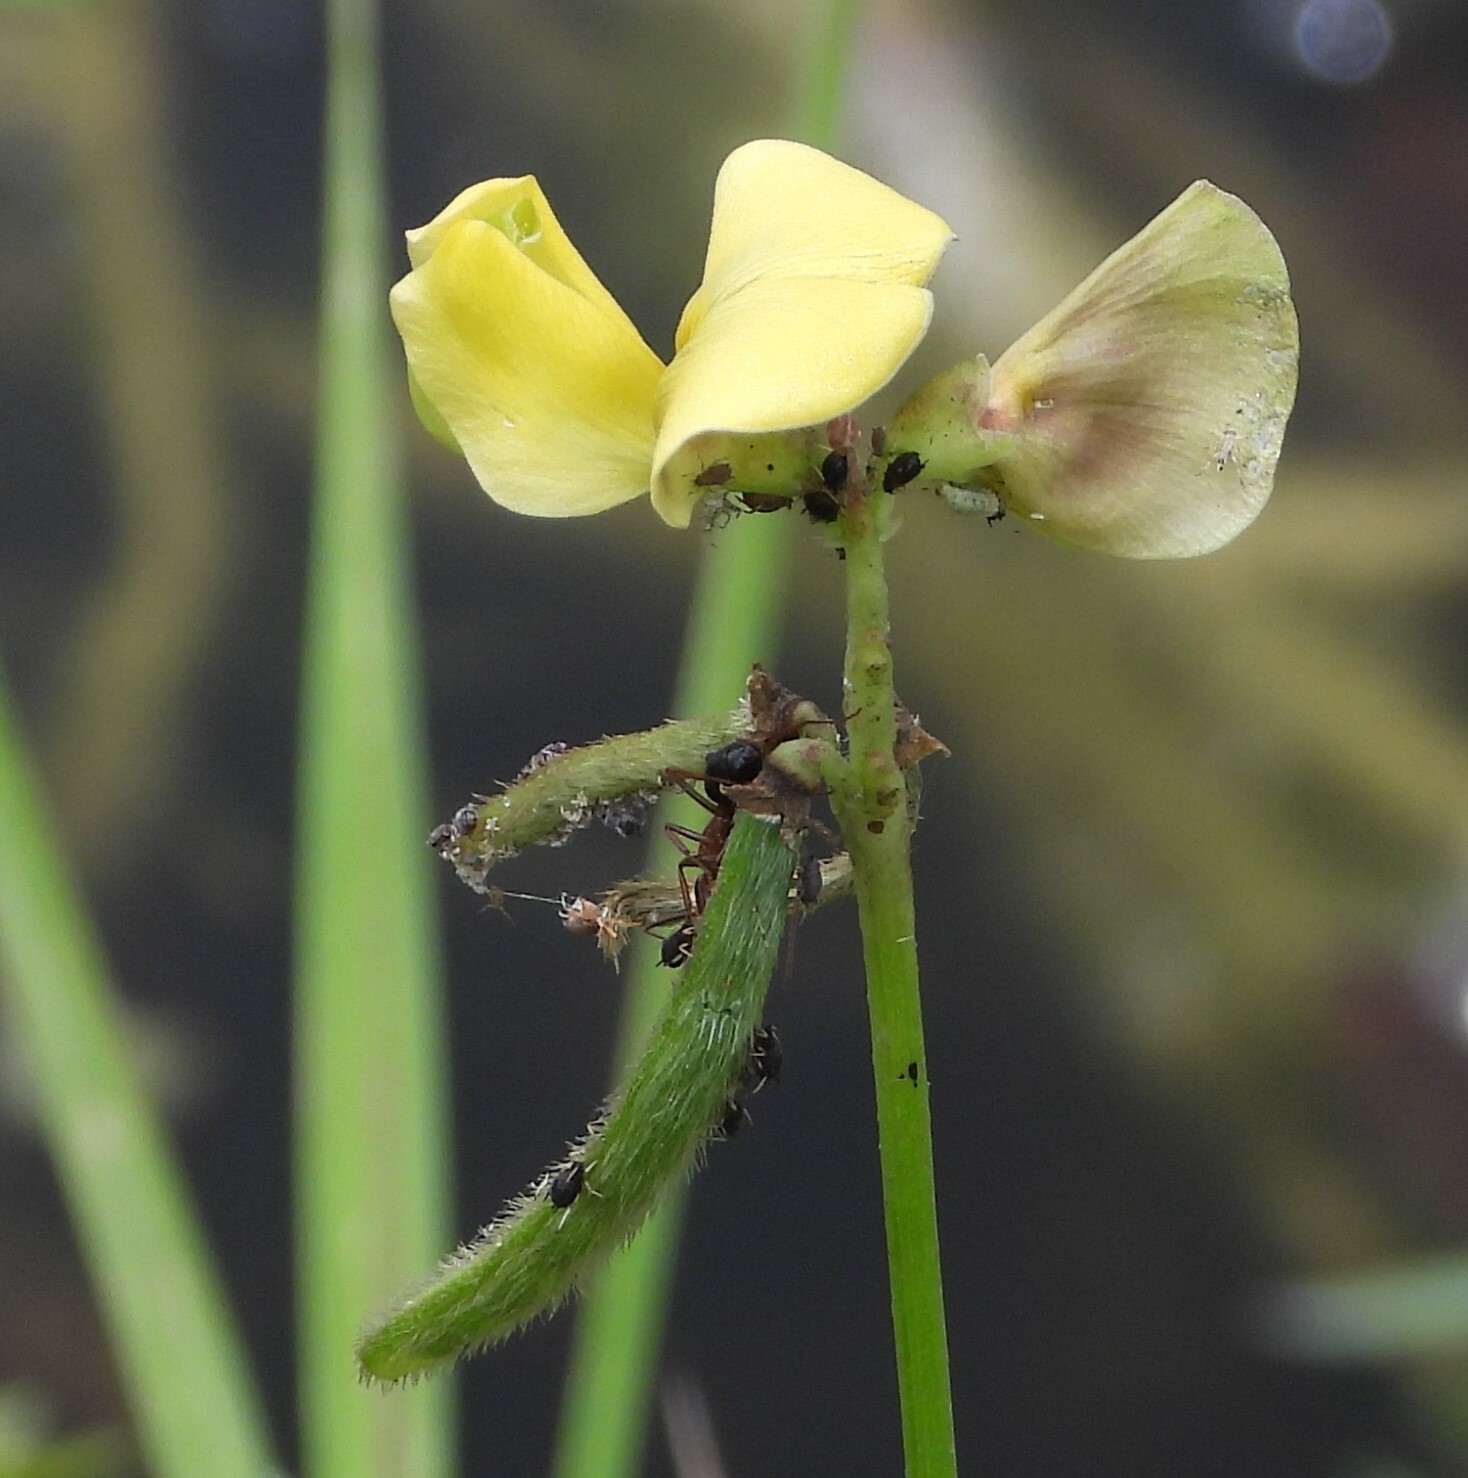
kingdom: Animalia
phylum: Arthropoda
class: Insecta
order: Hymenoptera
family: Formicidae
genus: Camponotus
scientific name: Camponotus floridanus
